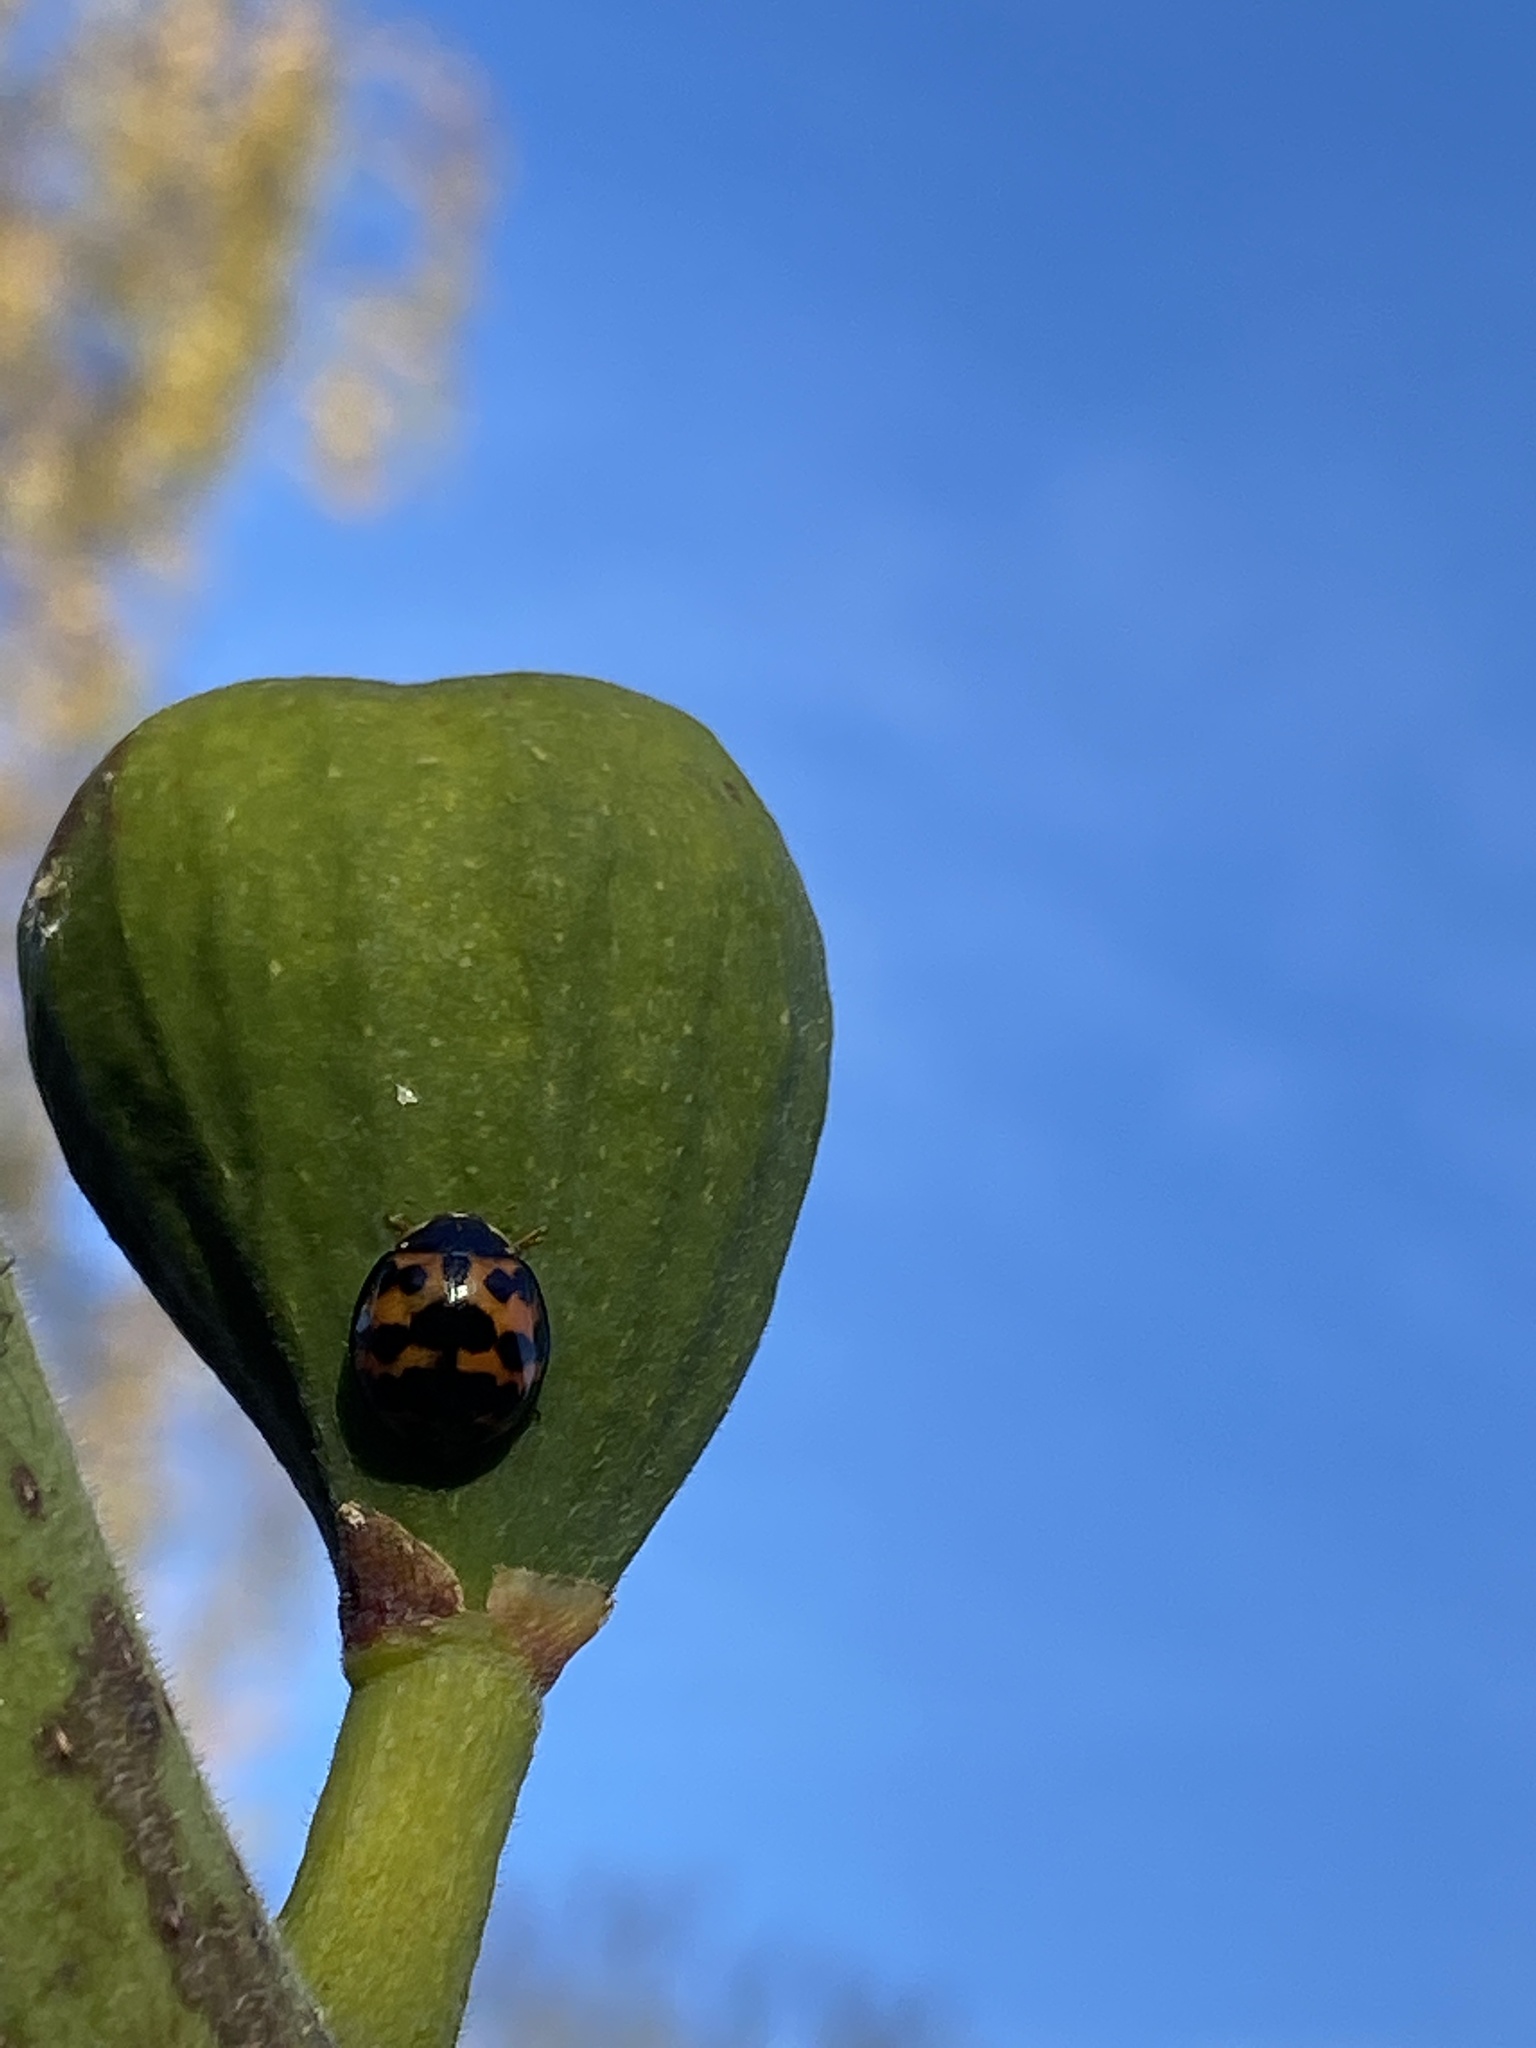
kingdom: Animalia
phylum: Arthropoda
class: Insecta
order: Coleoptera
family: Coccinellidae
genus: Harmonia
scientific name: Harmonia axyridis
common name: Harlequin ladybird
